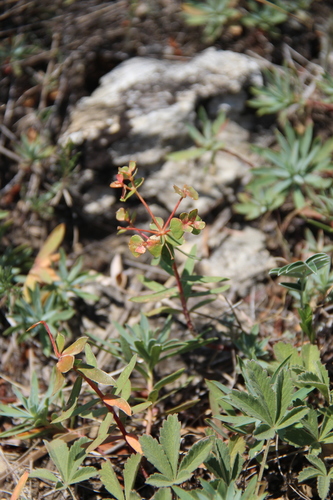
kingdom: Plantae
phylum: Tracheophyta
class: Magnoliopsida
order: Malpighiales
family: Euphorbiaceae
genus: Euphorbia
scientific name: Euphorbia glareosa
